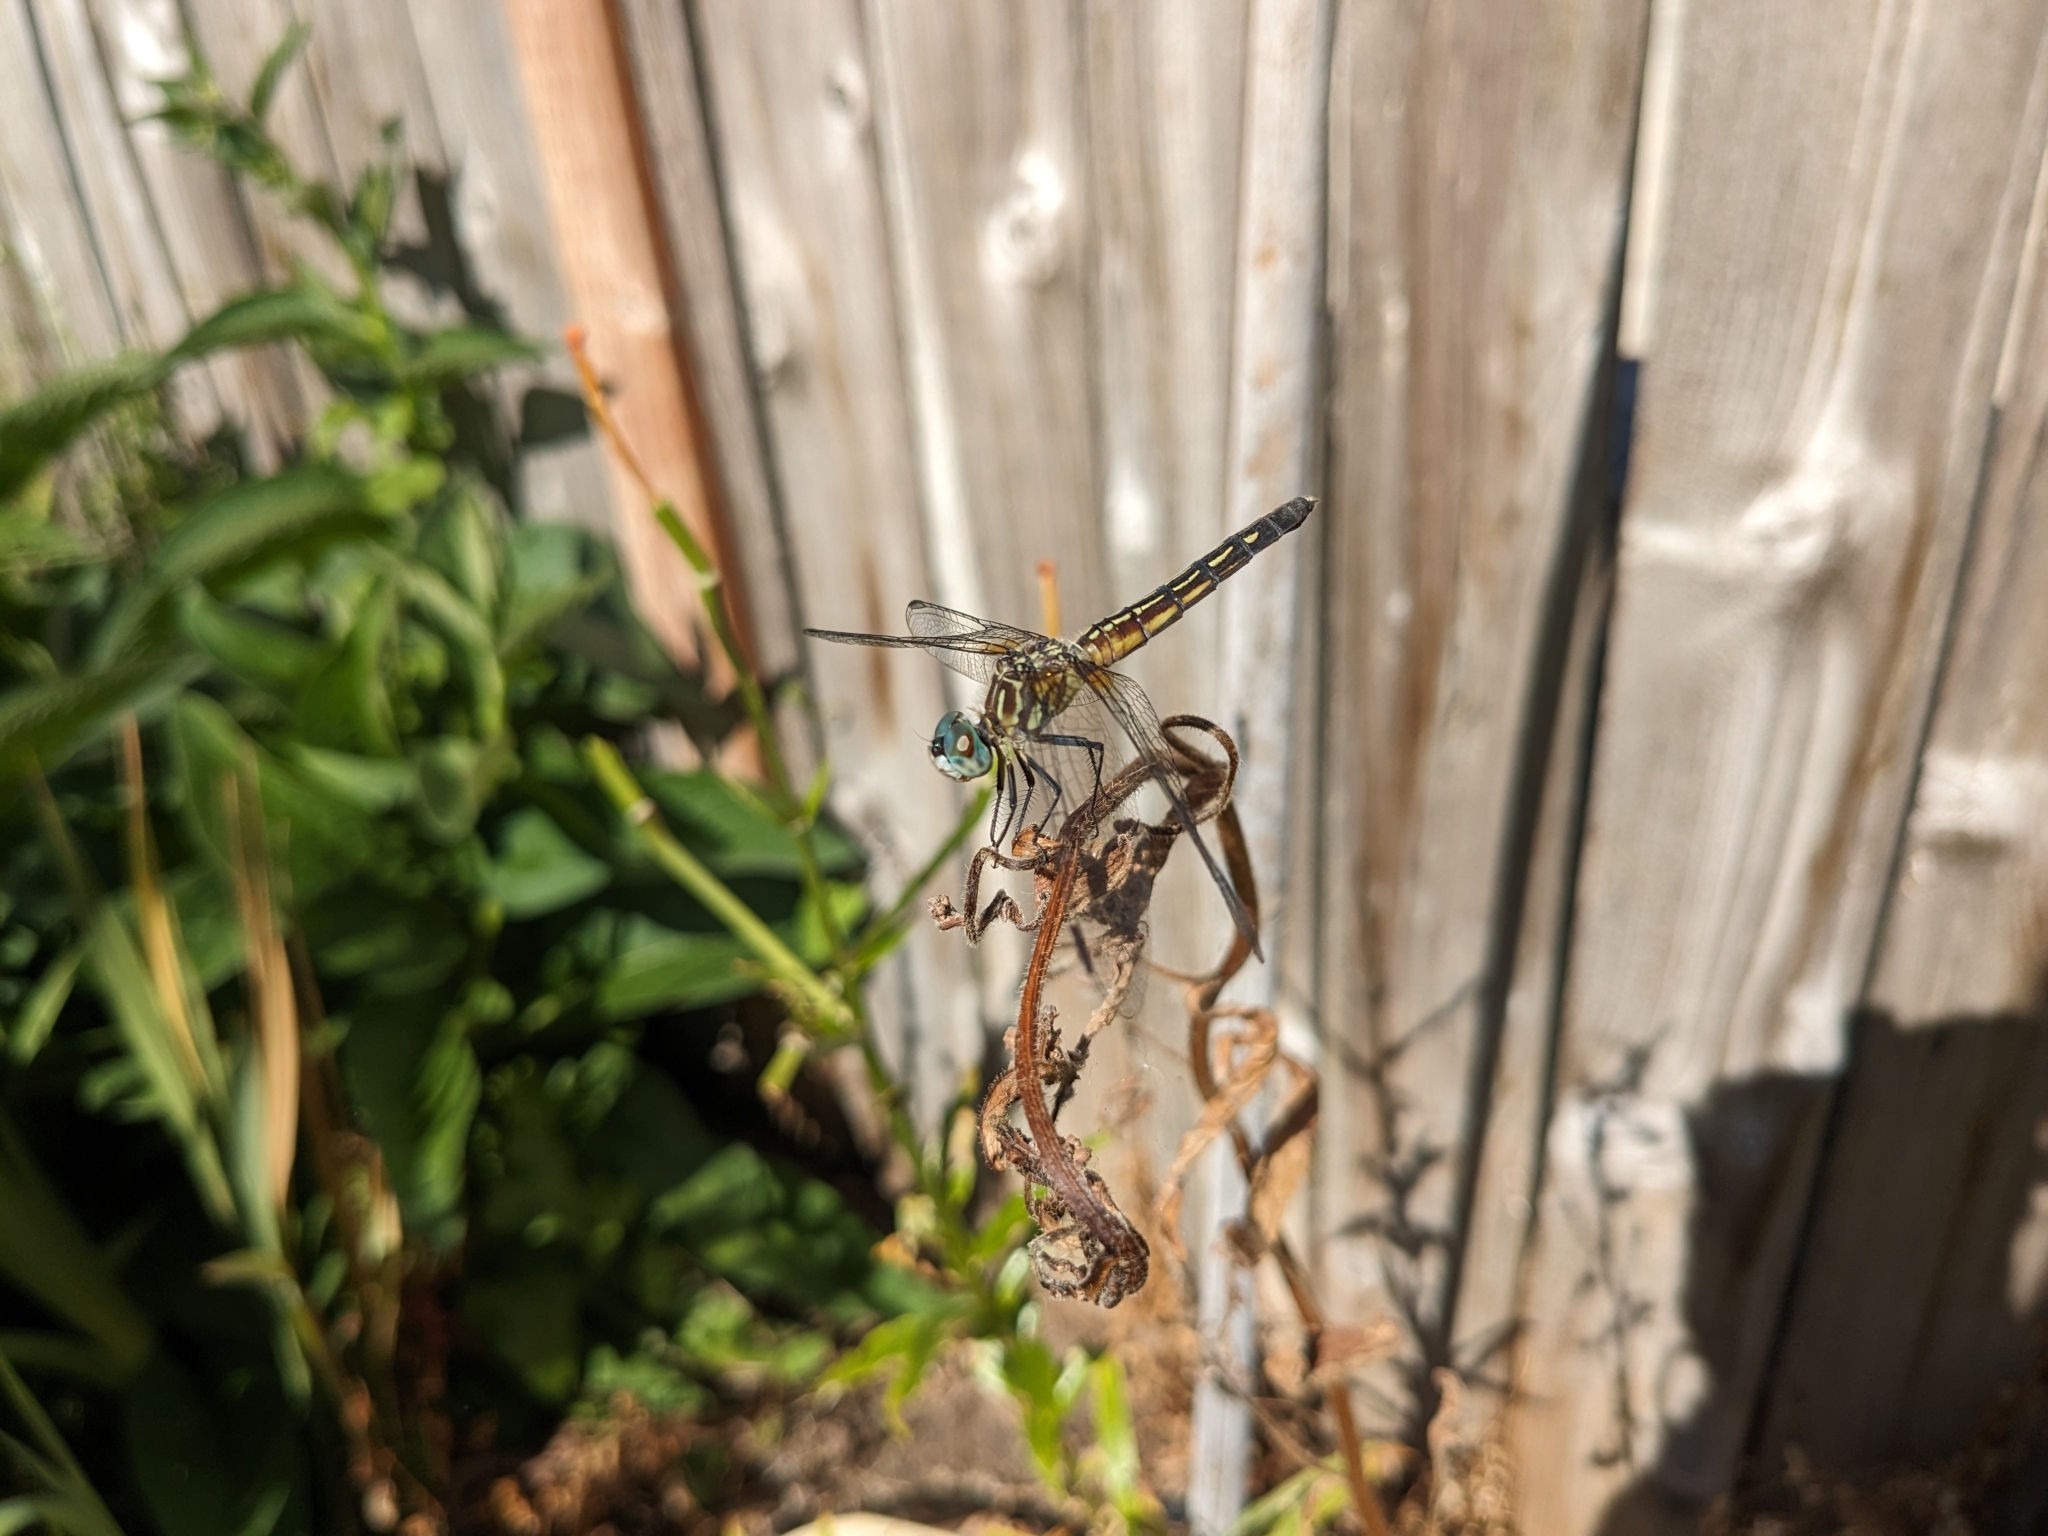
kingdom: Animalia
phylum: Arthropoda
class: Insecta
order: Odonata
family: Libellulidae
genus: Pachydiplax
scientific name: Pachydiplax longipennis
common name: Blue dasher
